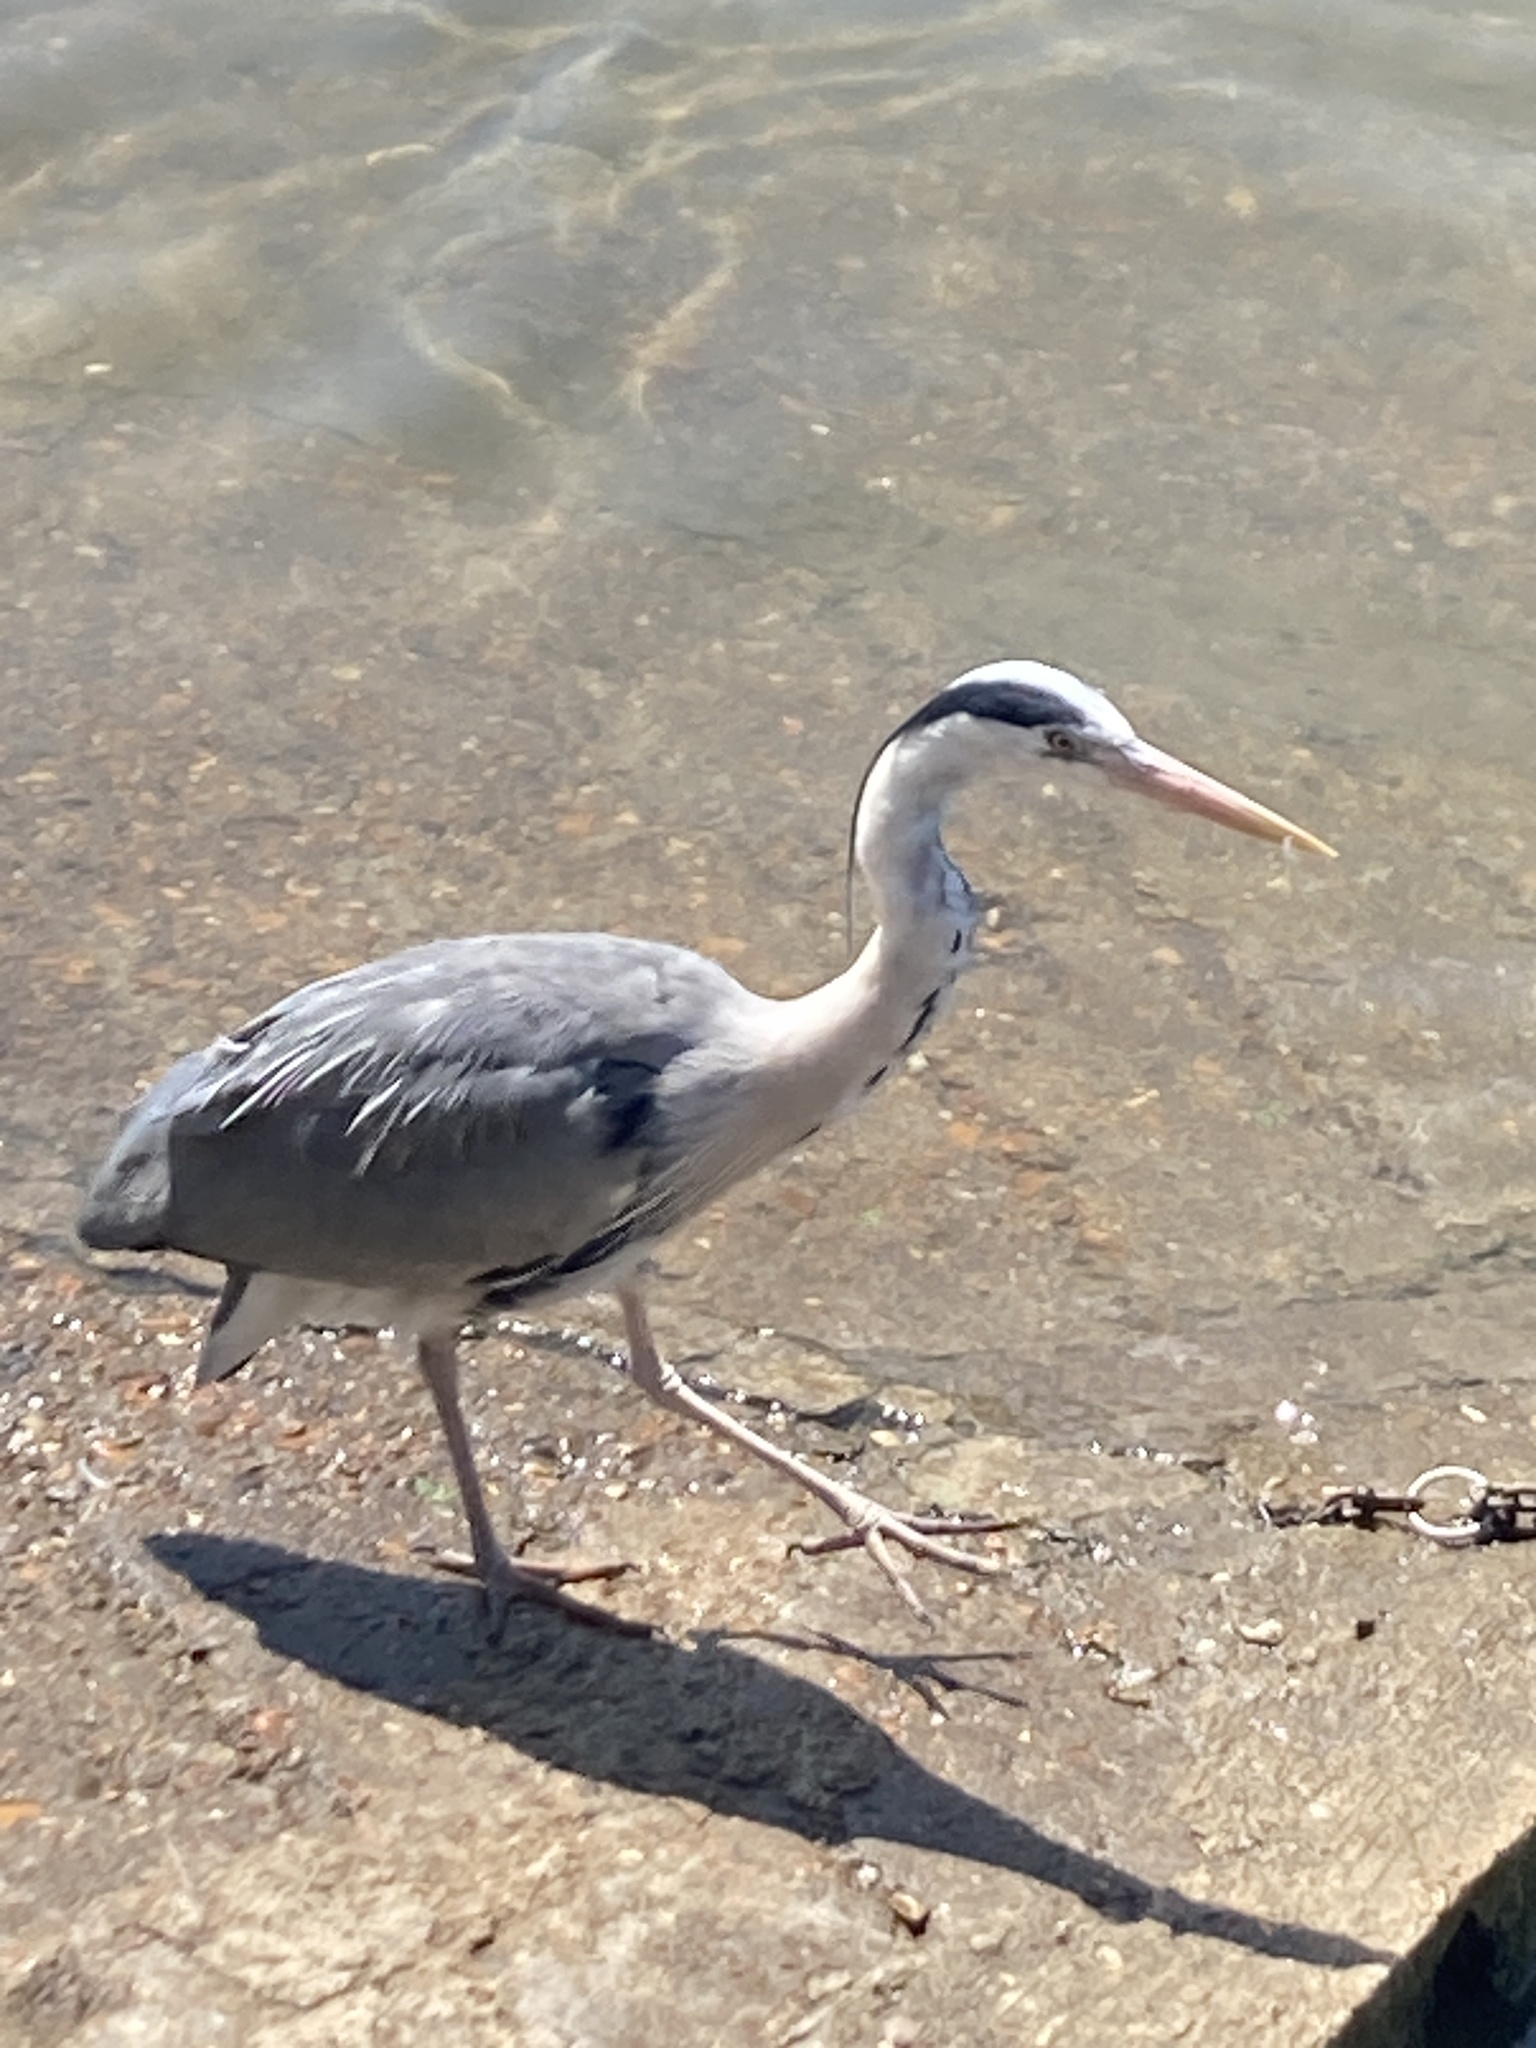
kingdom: Animalia
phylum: Chordata
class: Aves
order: Pelecaniformes
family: Ardeidae
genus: Ardea
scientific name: Ardea cinerea
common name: Grey heron
